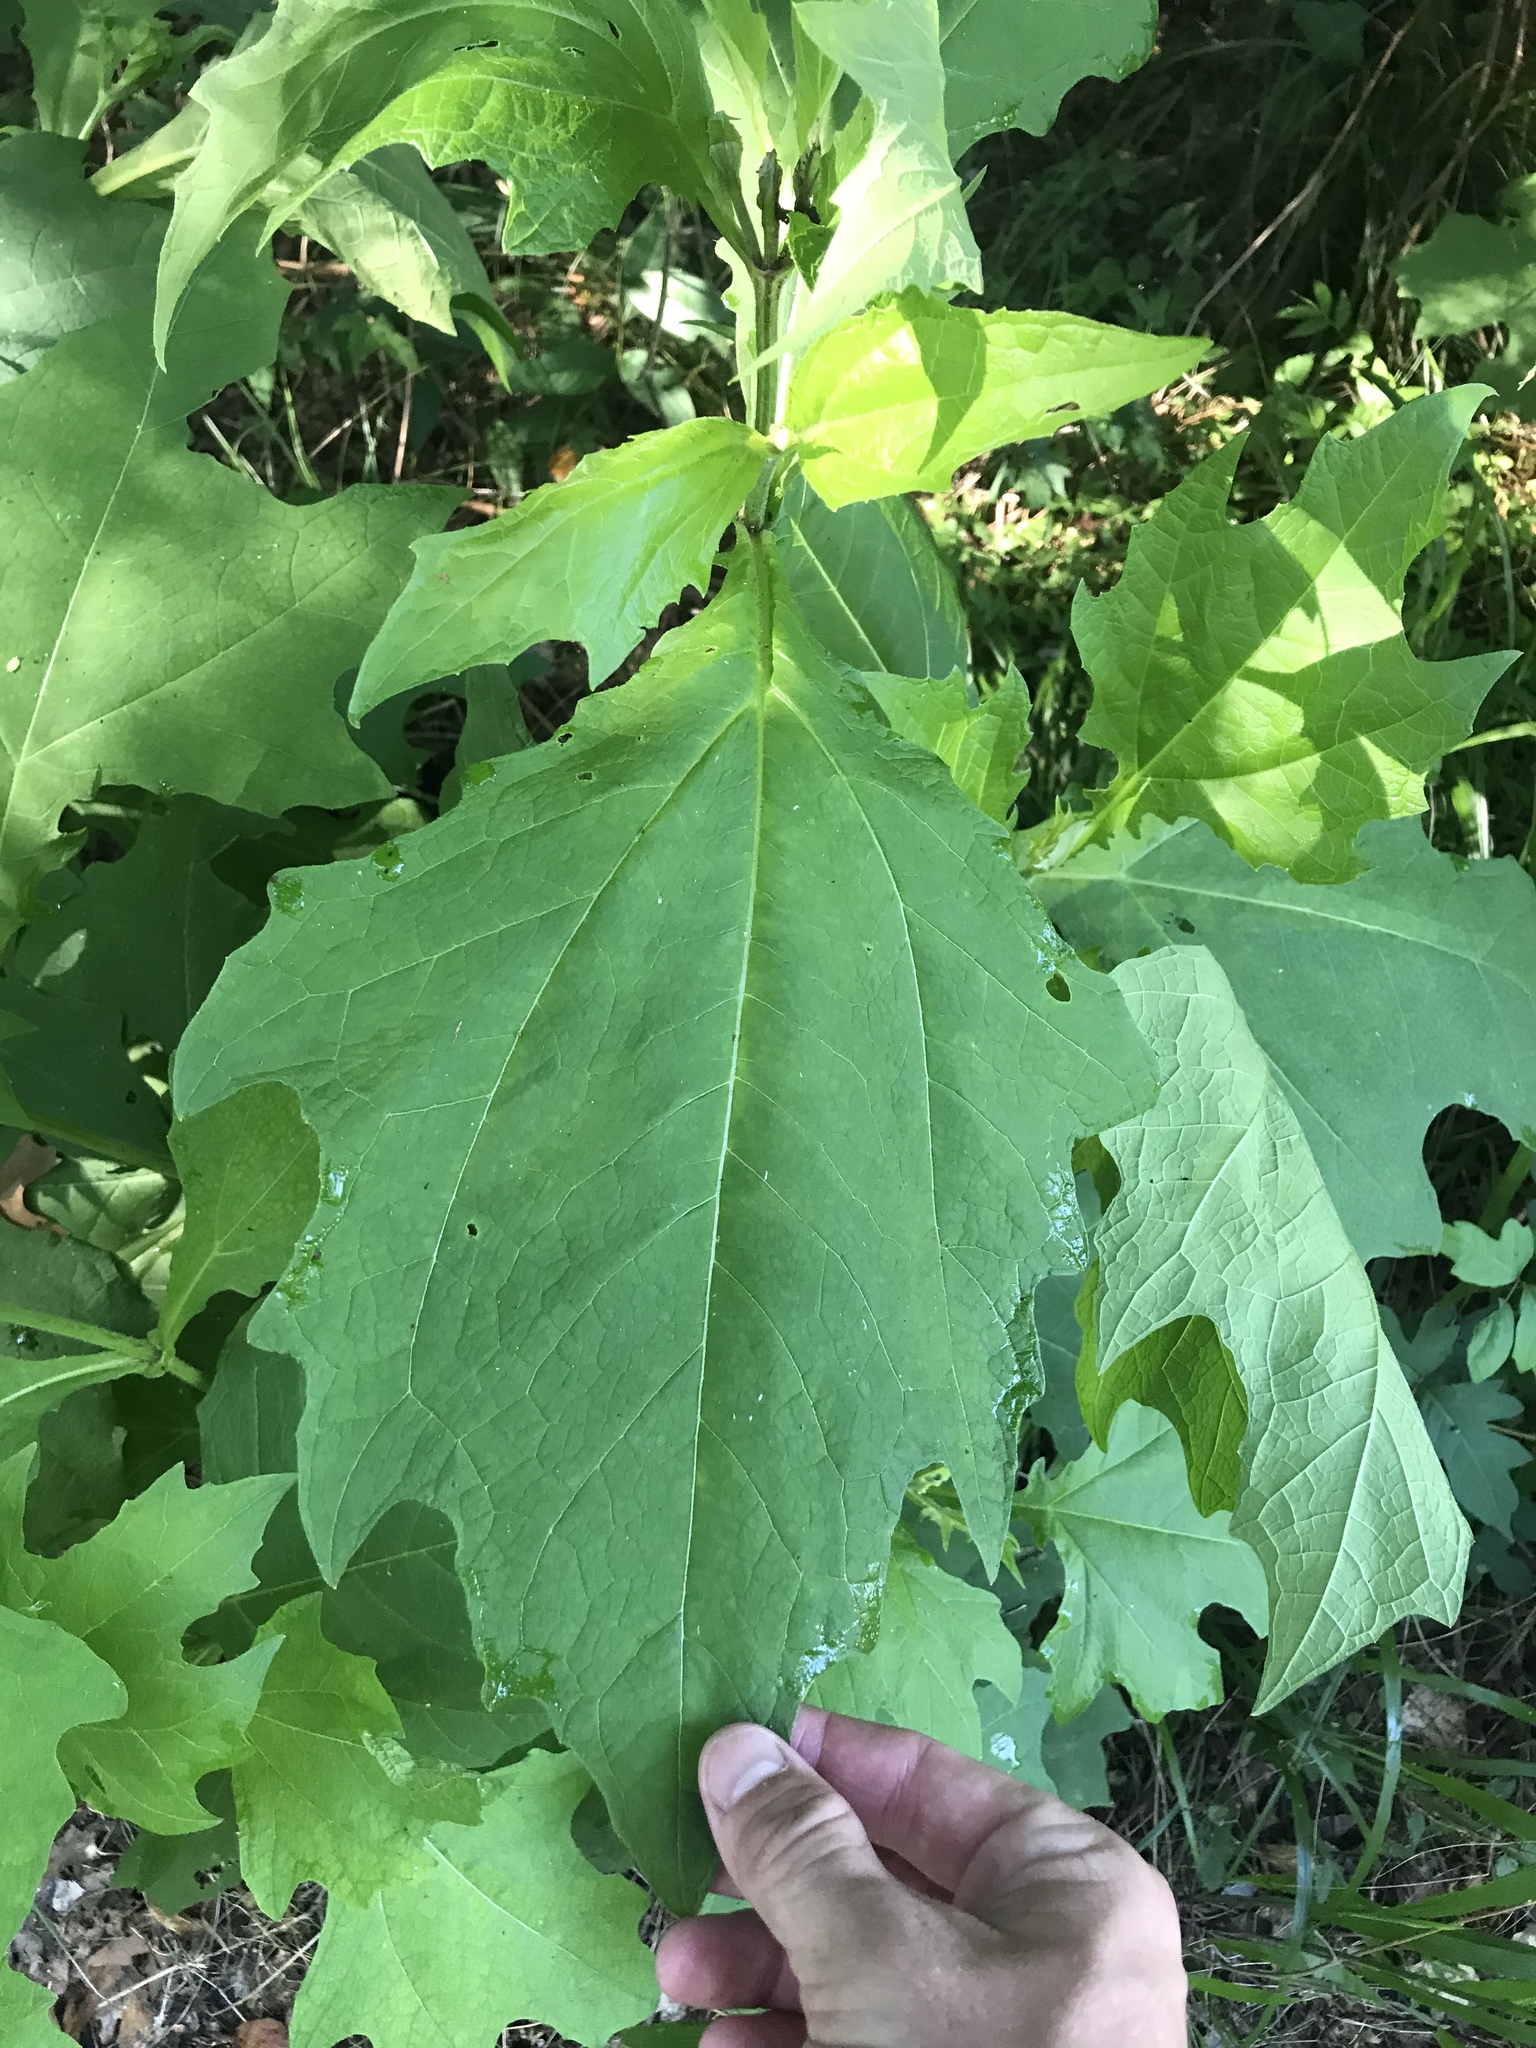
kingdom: Plantae
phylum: Tracheophyta
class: Magnoliopsida
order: Asterales
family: Asteraceae
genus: Smallanthus
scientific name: Smallanthus uvedalia
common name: Bear's-foot
